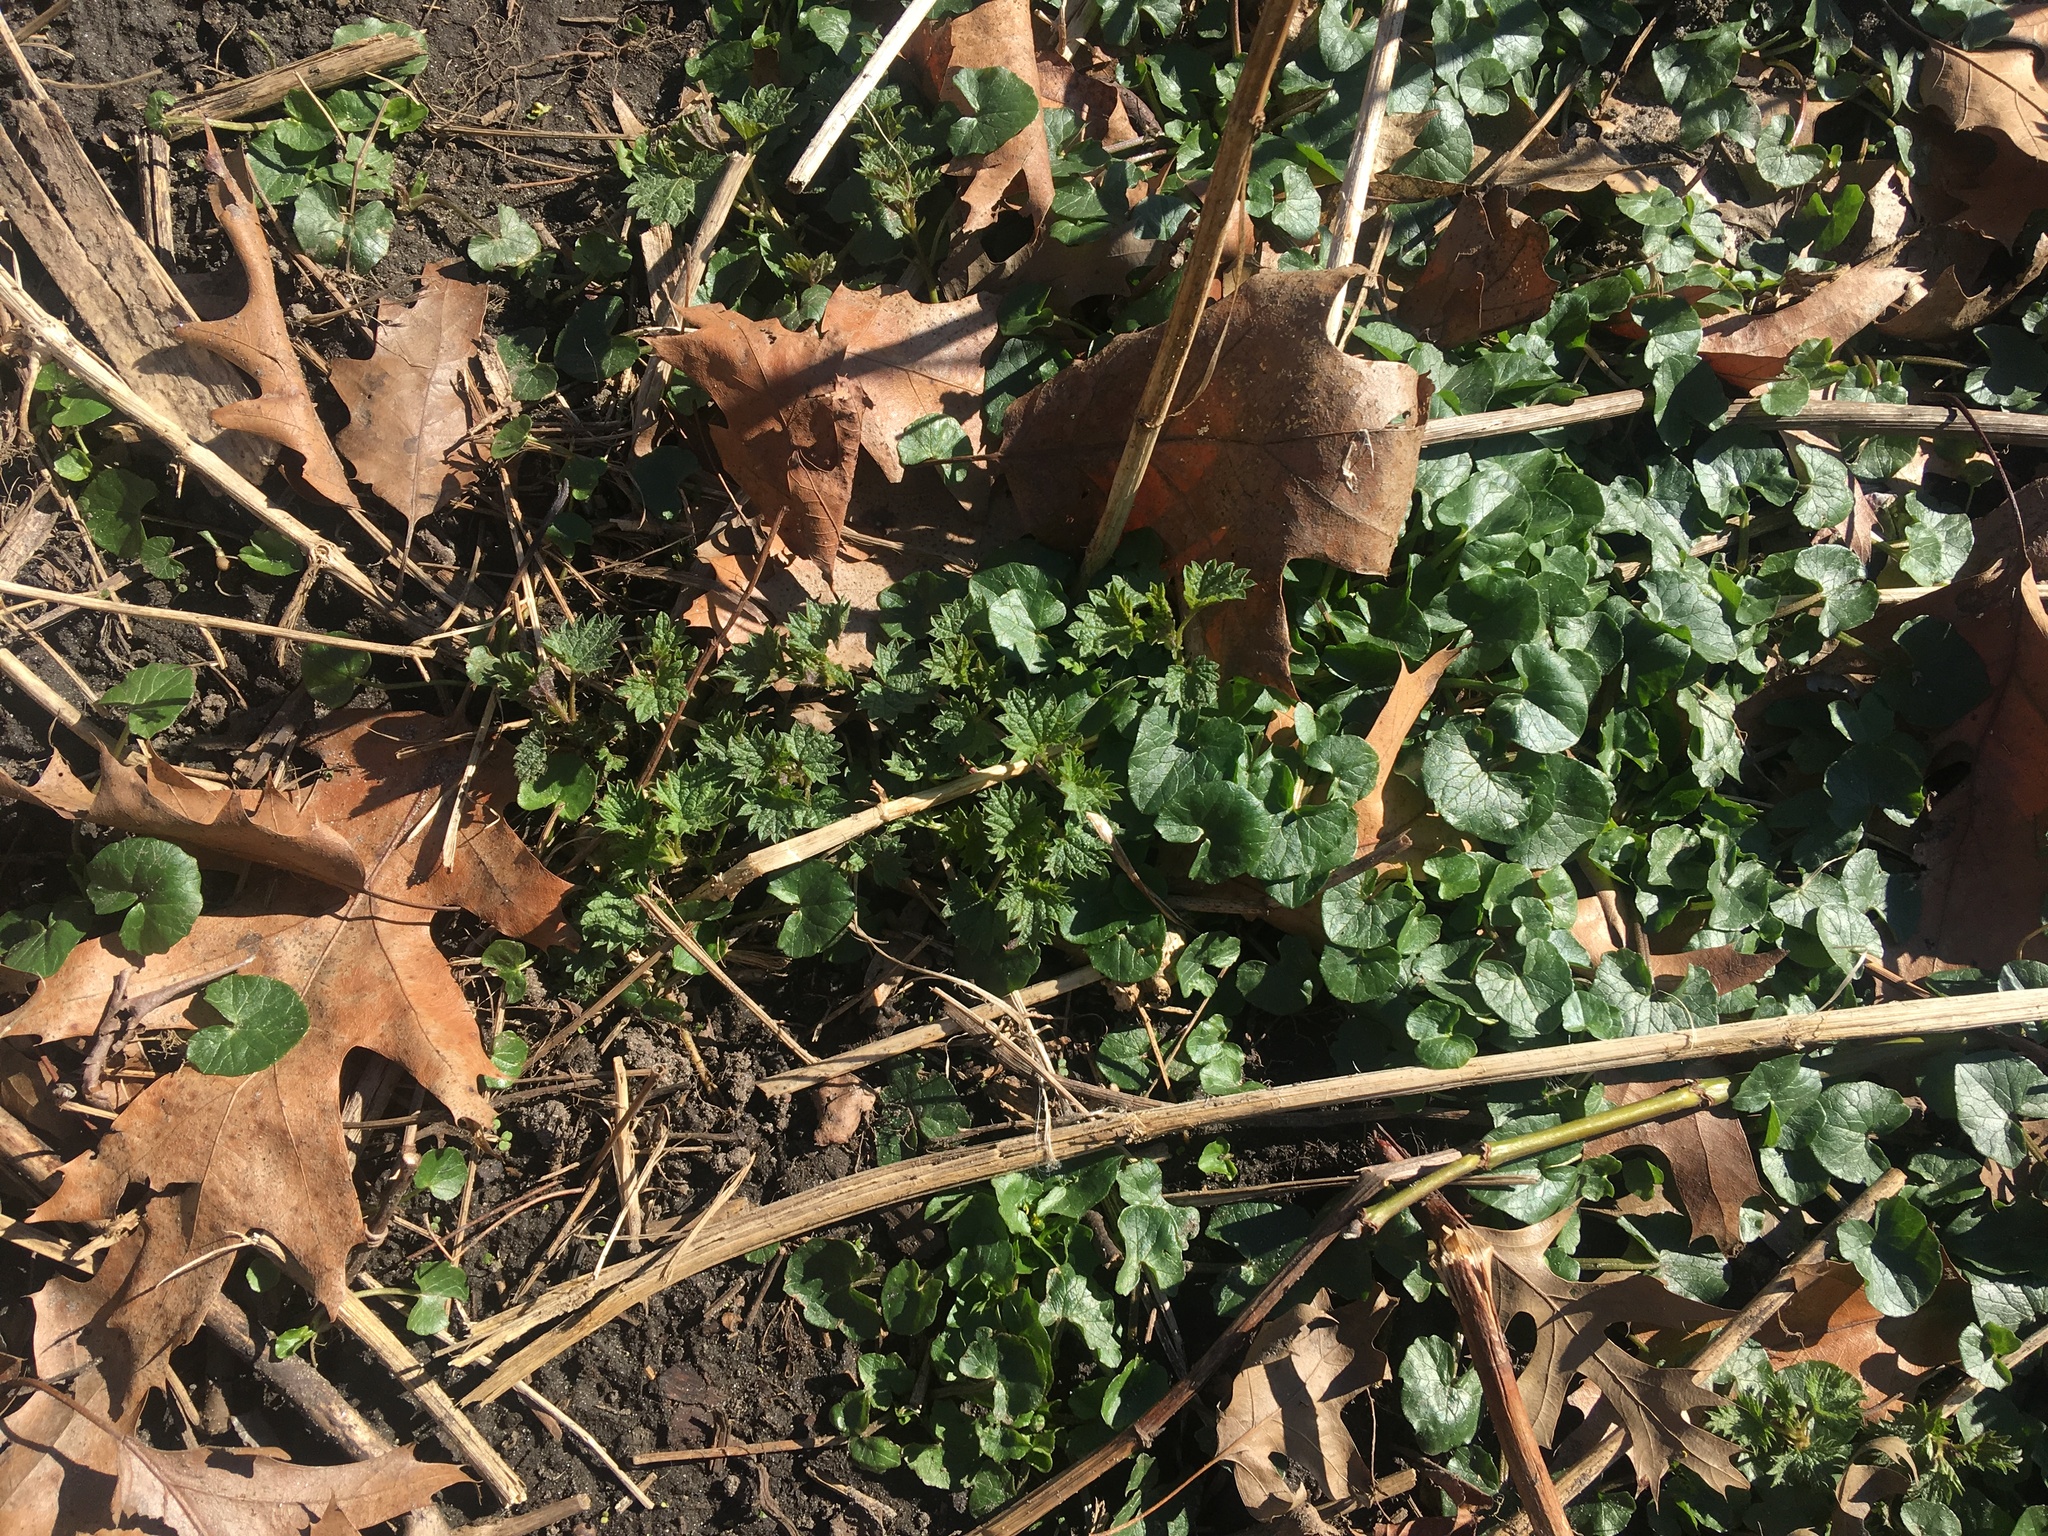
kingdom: Plantae
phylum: Tracheophyta
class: Magnoliopsida
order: Ranunculales
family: Ranunculaceae
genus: Ficaria
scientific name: Ficaria verna
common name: Lesser celandine
